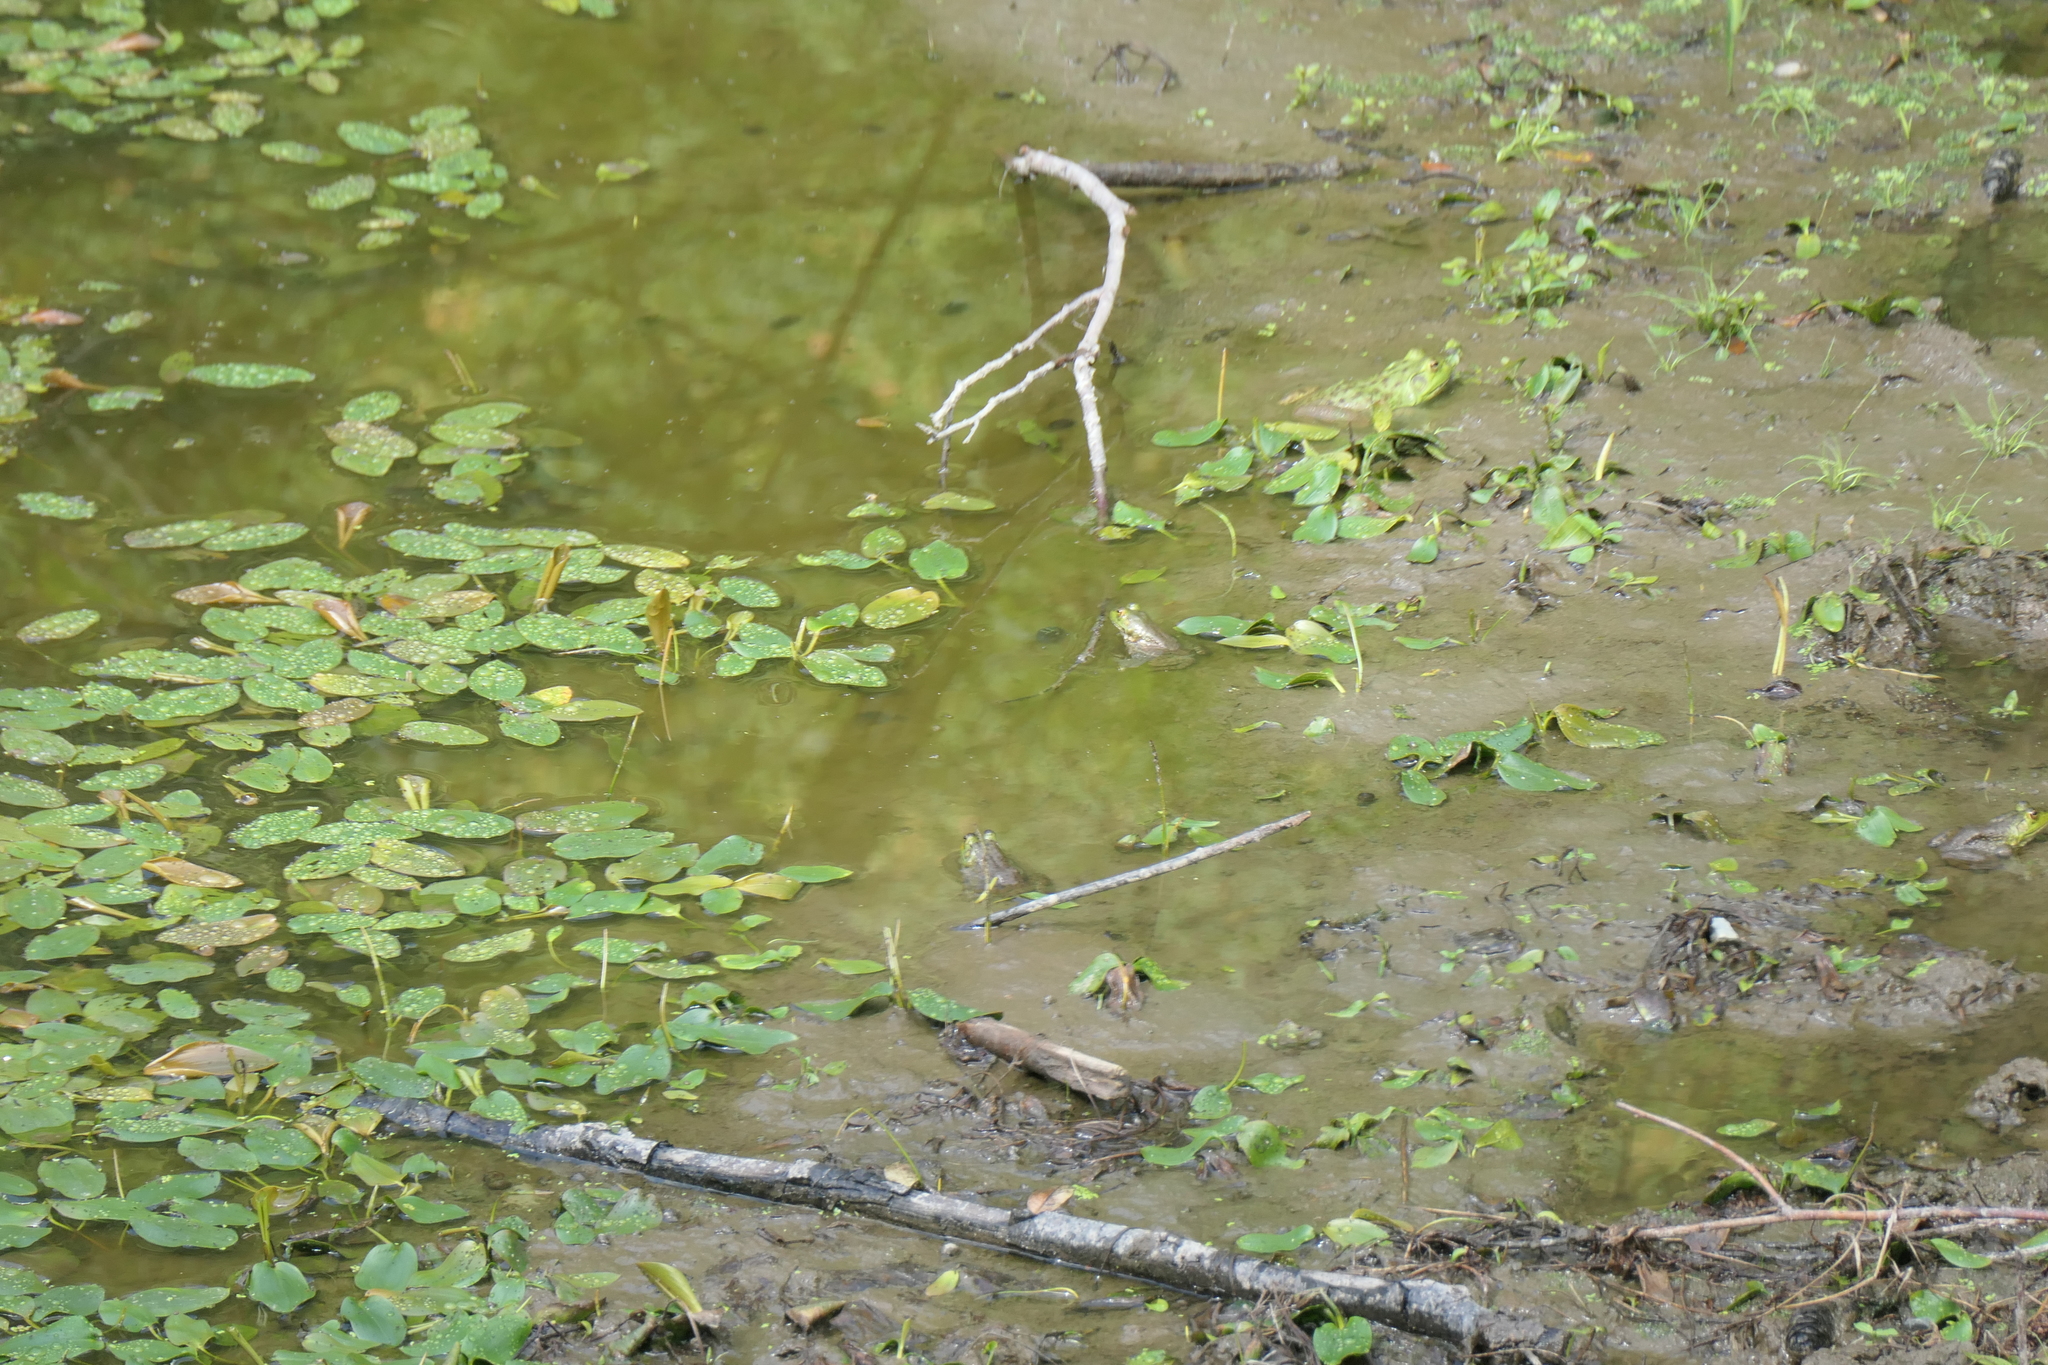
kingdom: Animalia
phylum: Chordata
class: Amphibia
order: Anura
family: Ranidae
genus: Lithobates
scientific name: Lithobates catesbeianus
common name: American bullfrog
